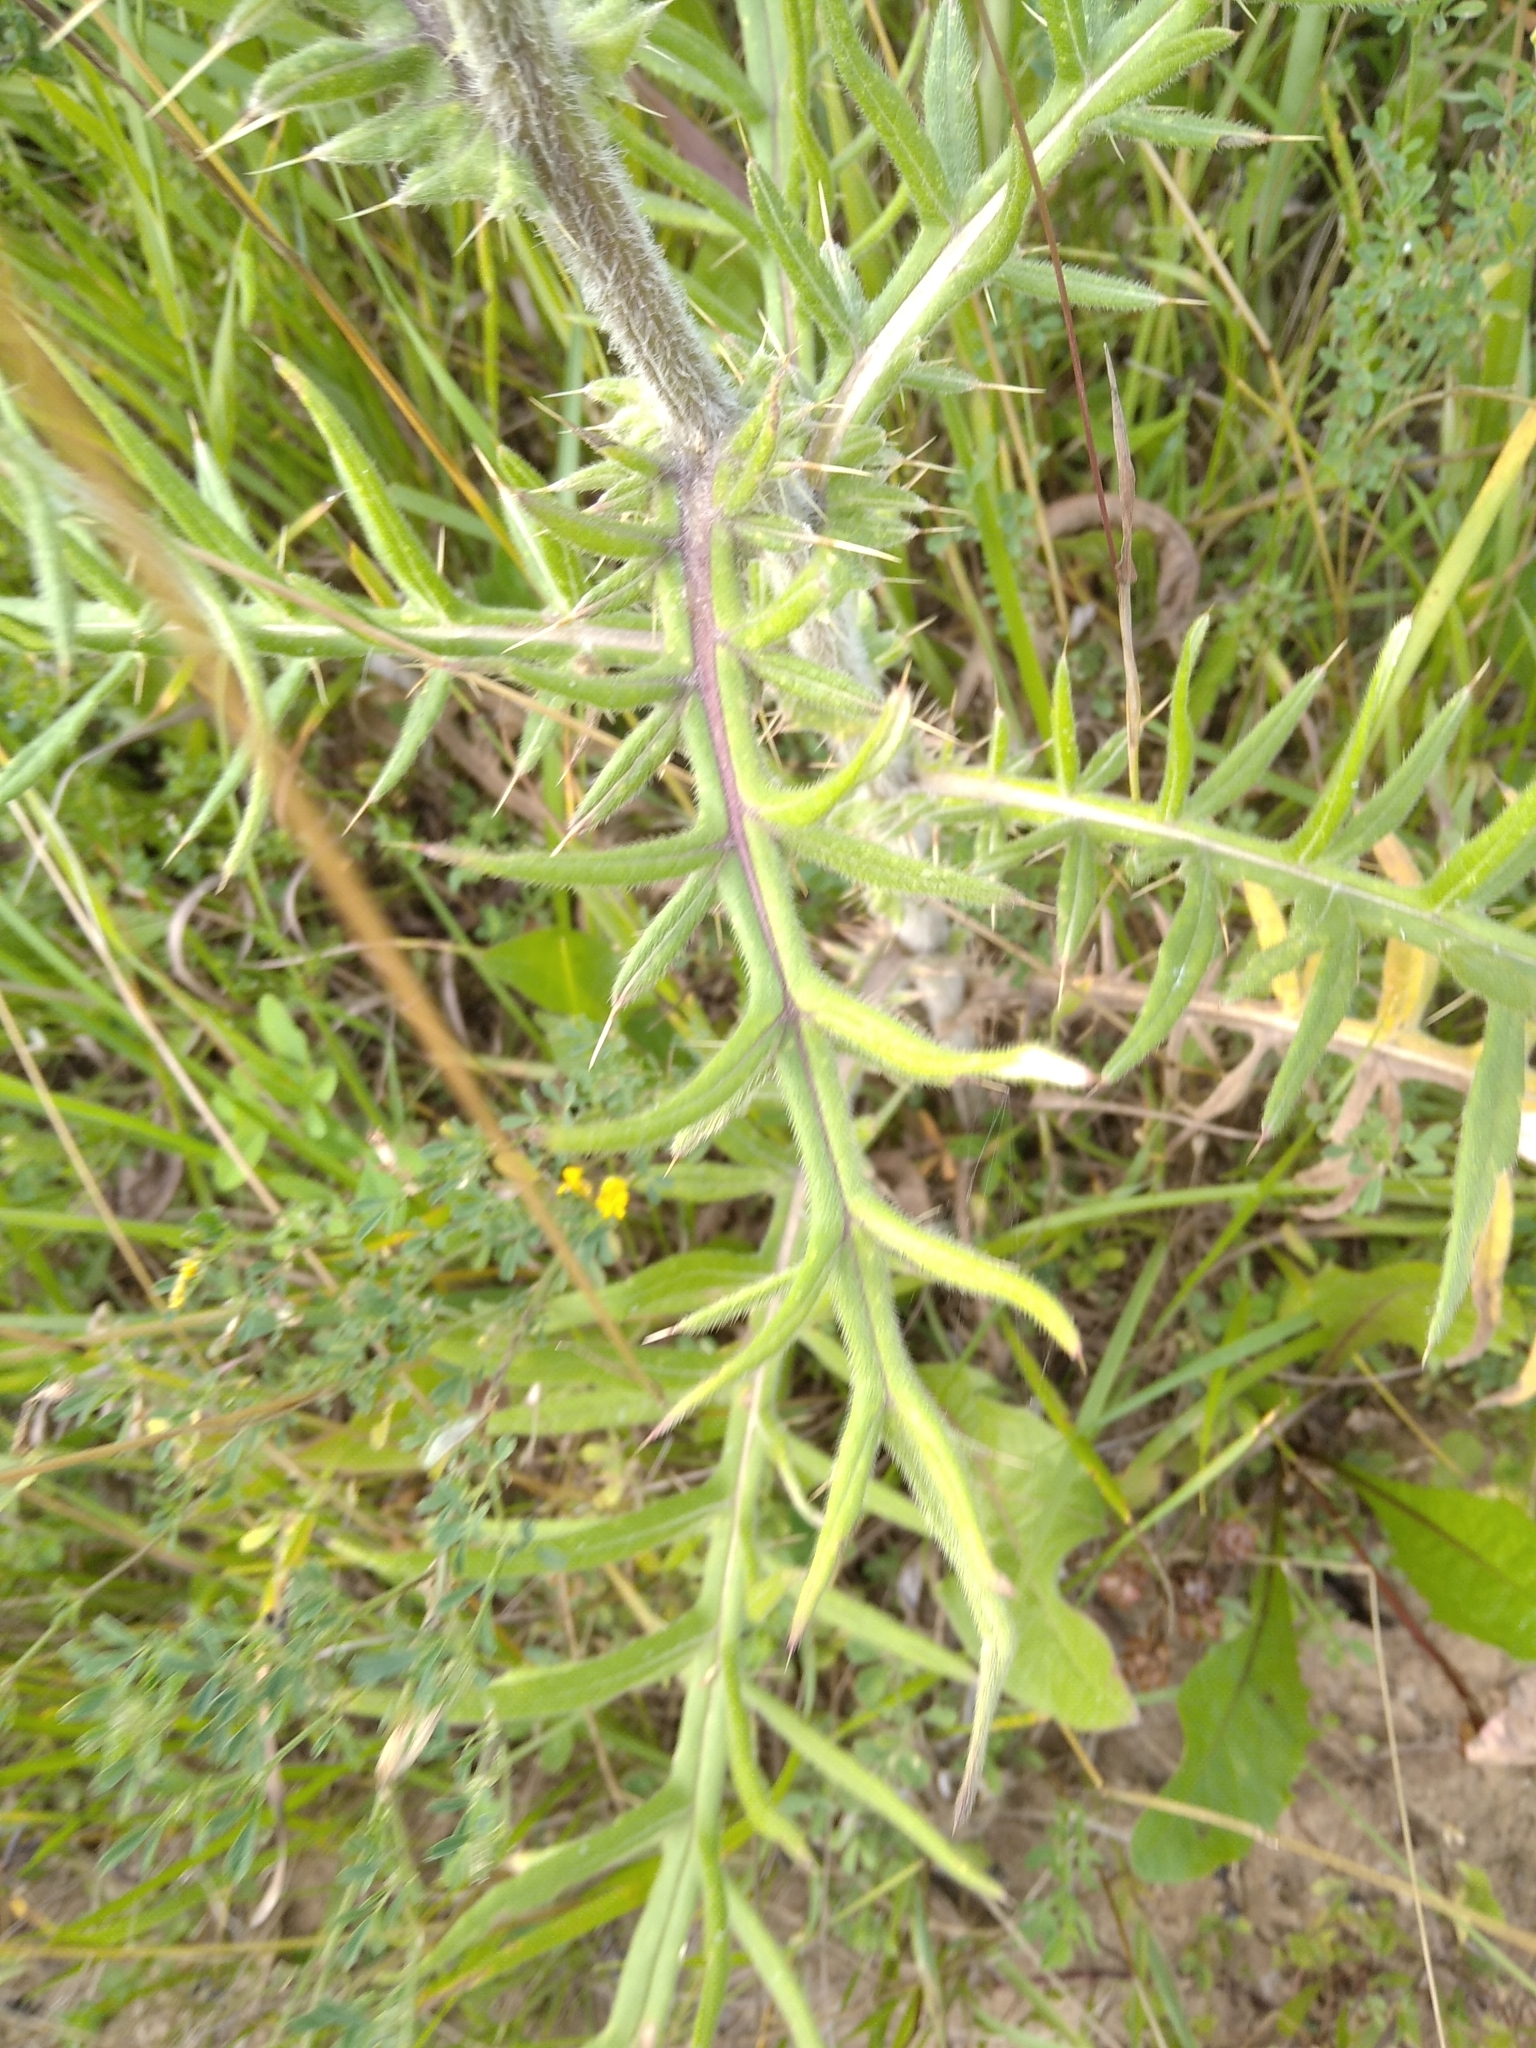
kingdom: Plantae
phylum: Tracheophyta
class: Magnoliopsida
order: Asterales
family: Asteraceae
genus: Lophiolepis
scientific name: Lophiolepis decussata
